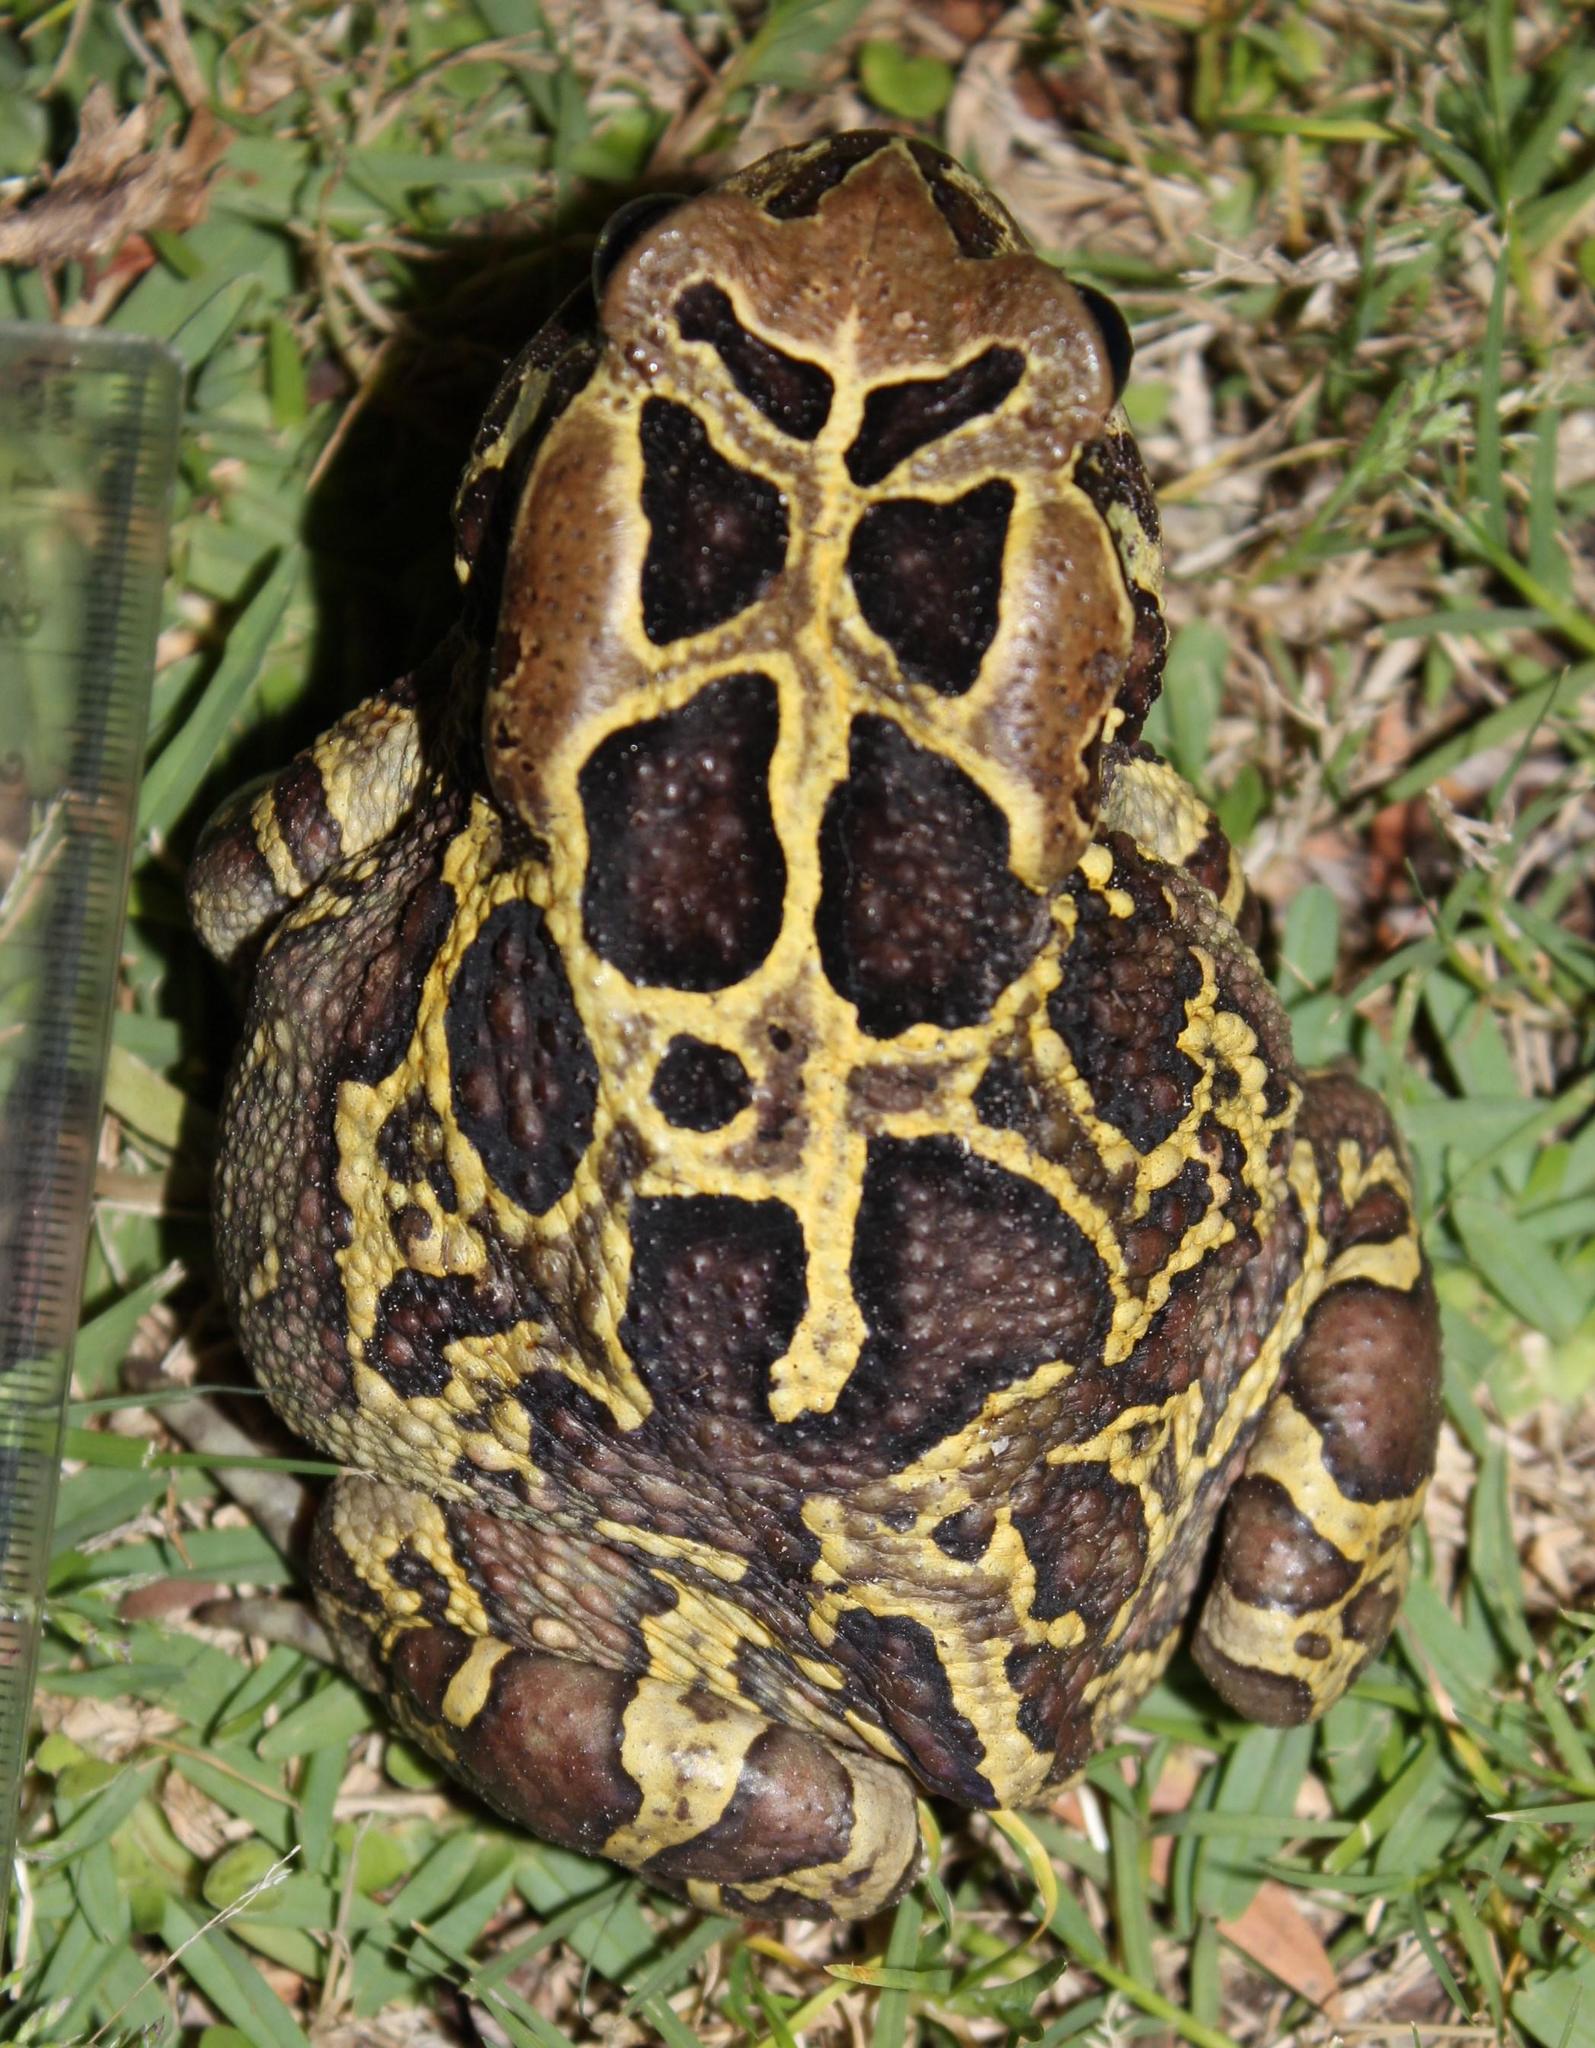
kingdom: Animalia
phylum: Chordata
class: Amphibia
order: Anura
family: Bufonidae
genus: Sclerophrys
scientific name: Sclerophrys pantherina
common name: Panther toad
